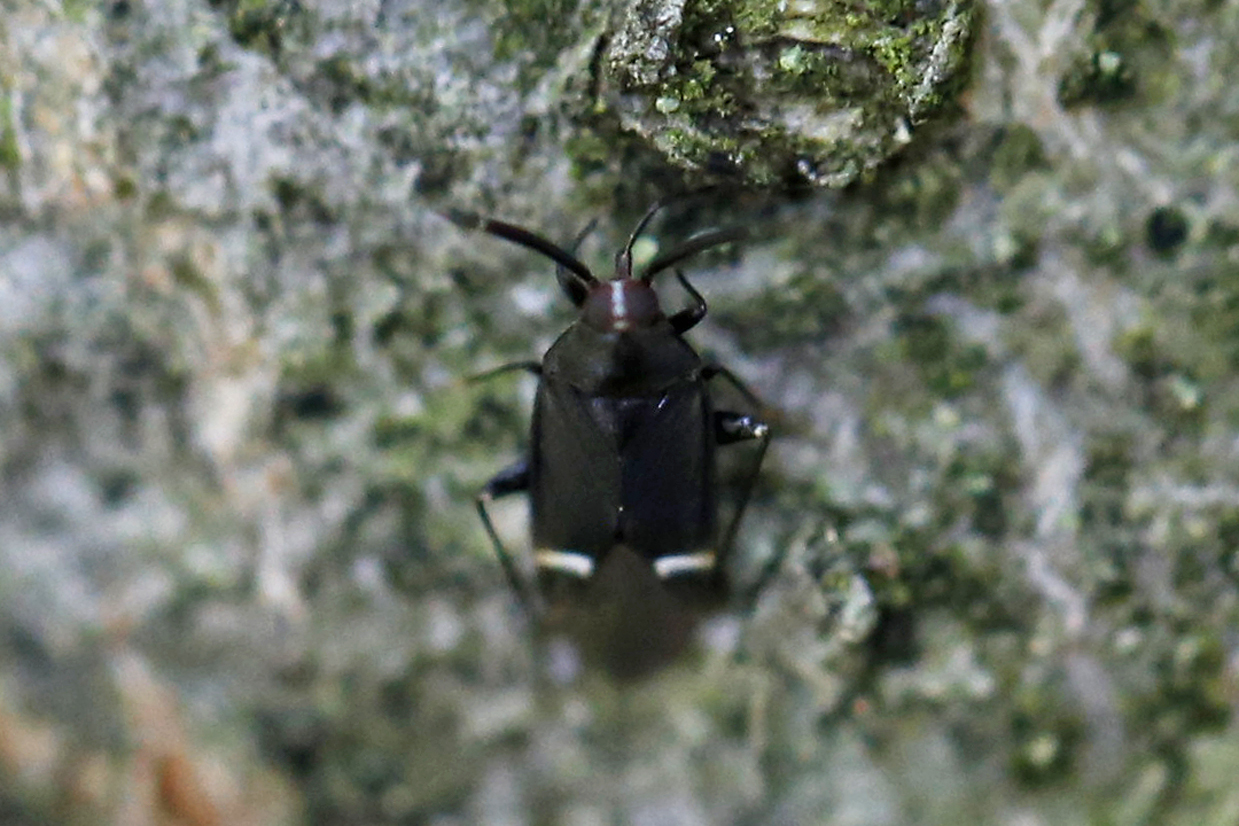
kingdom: Animalia
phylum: Arthropoda
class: Insecta
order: Hemiptera
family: Miridae
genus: Myiomma
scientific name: Myiomma cixiiforme
